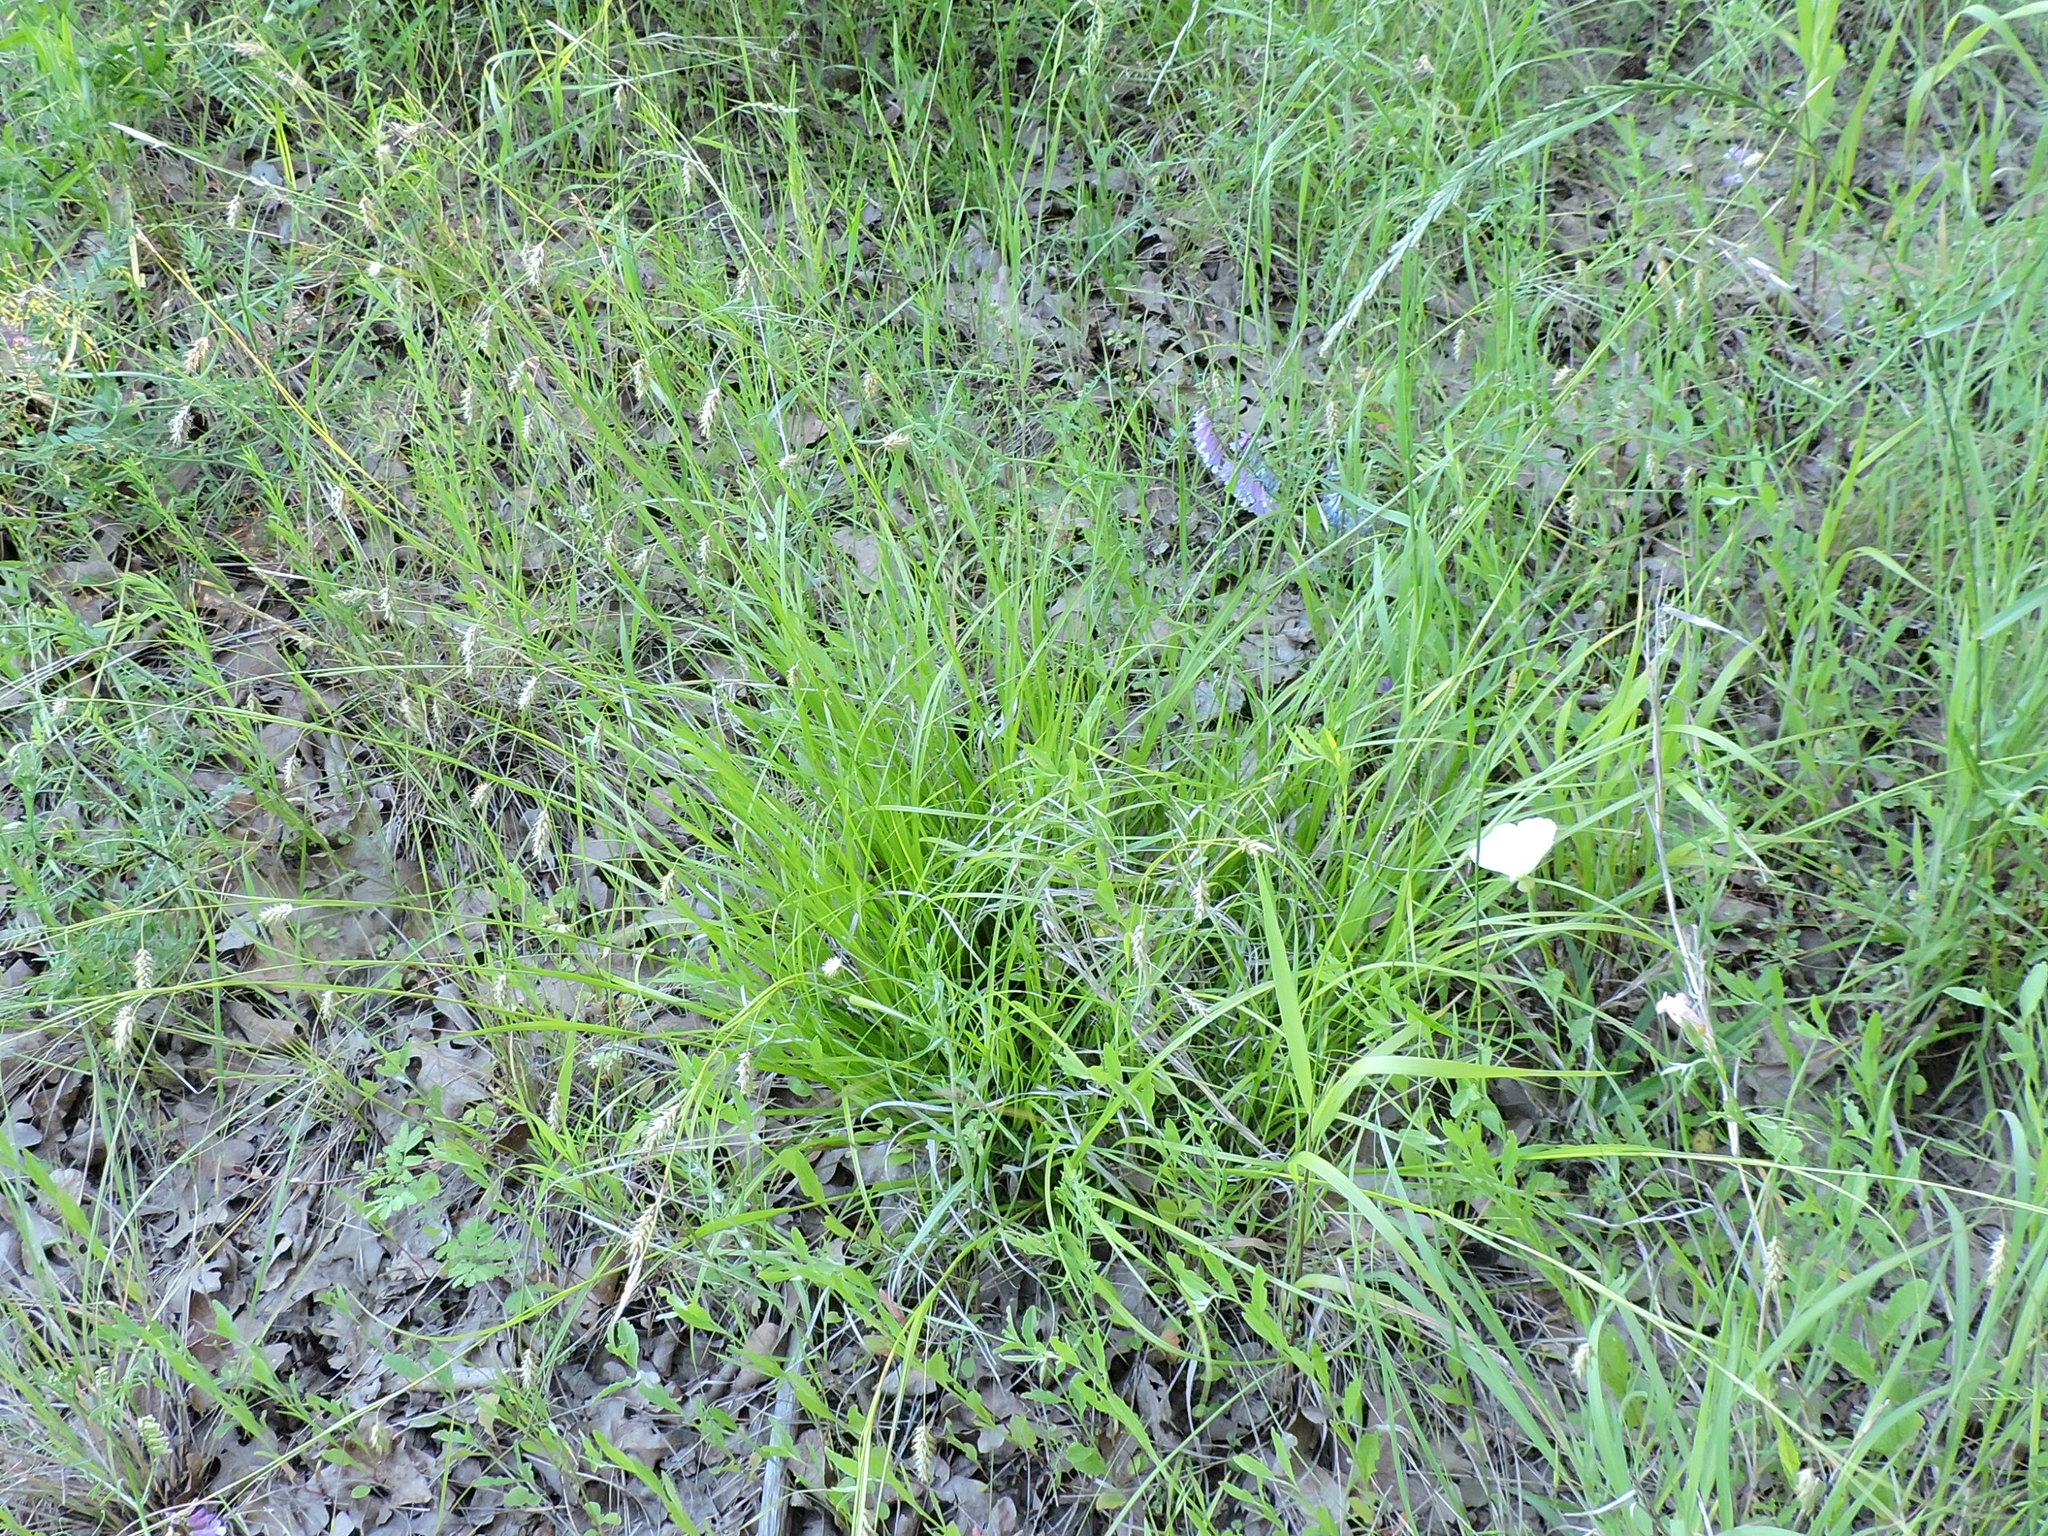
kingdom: Plantae
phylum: Tracheophyta
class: Liliopsida
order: Poales
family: Cyperaceae
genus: Carex
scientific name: Carex cherokeensis
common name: Cherokee sedge
